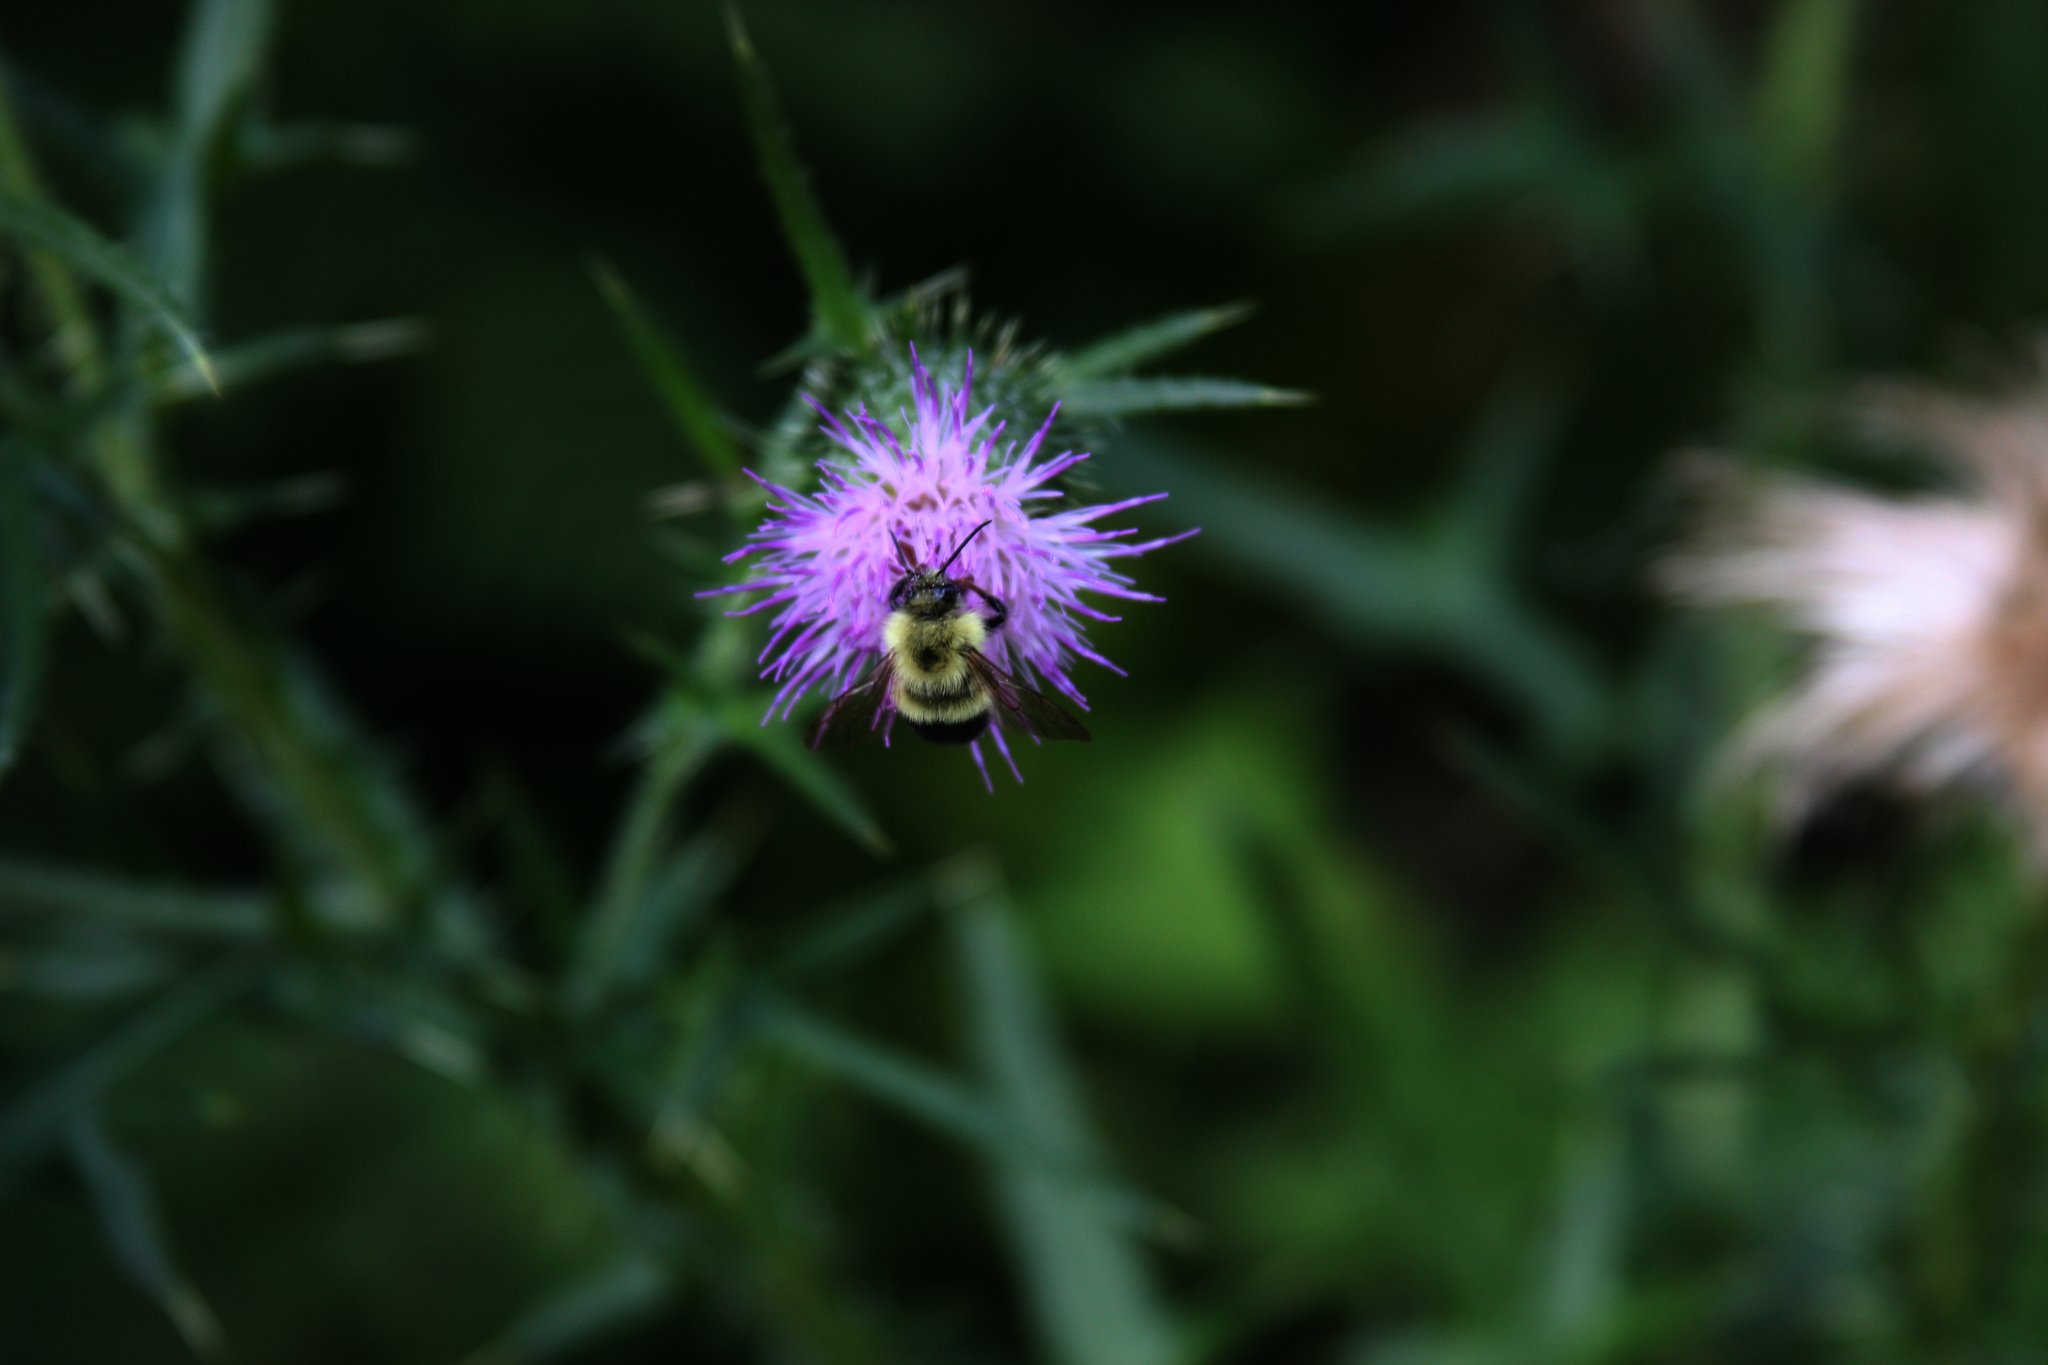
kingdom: Animalia
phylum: Arthropoda
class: Insecta
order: Hymenoptera
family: Apidae
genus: Pyrobombus
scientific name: Pyrobombus
